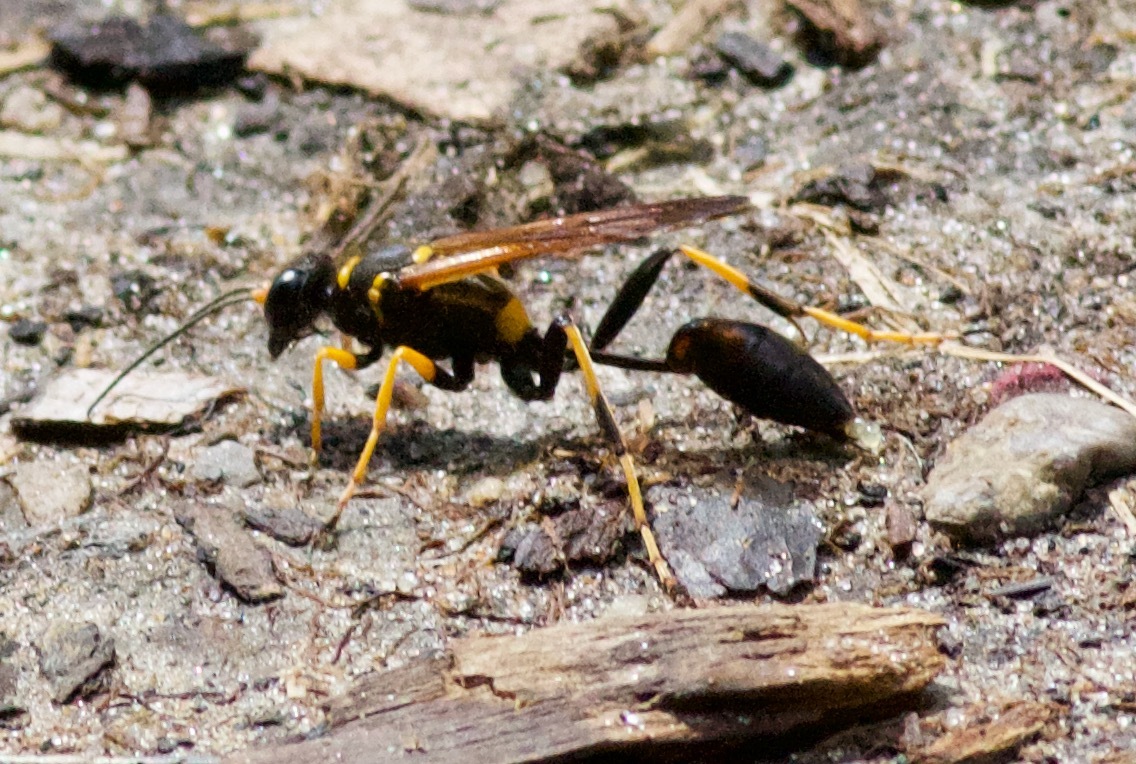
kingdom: Animalia
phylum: Arthropoda
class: Insecta
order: Hymenoptera
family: Sphecidae
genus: Sceliphron
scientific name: Sceliphron caementarium
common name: Mud dauber
